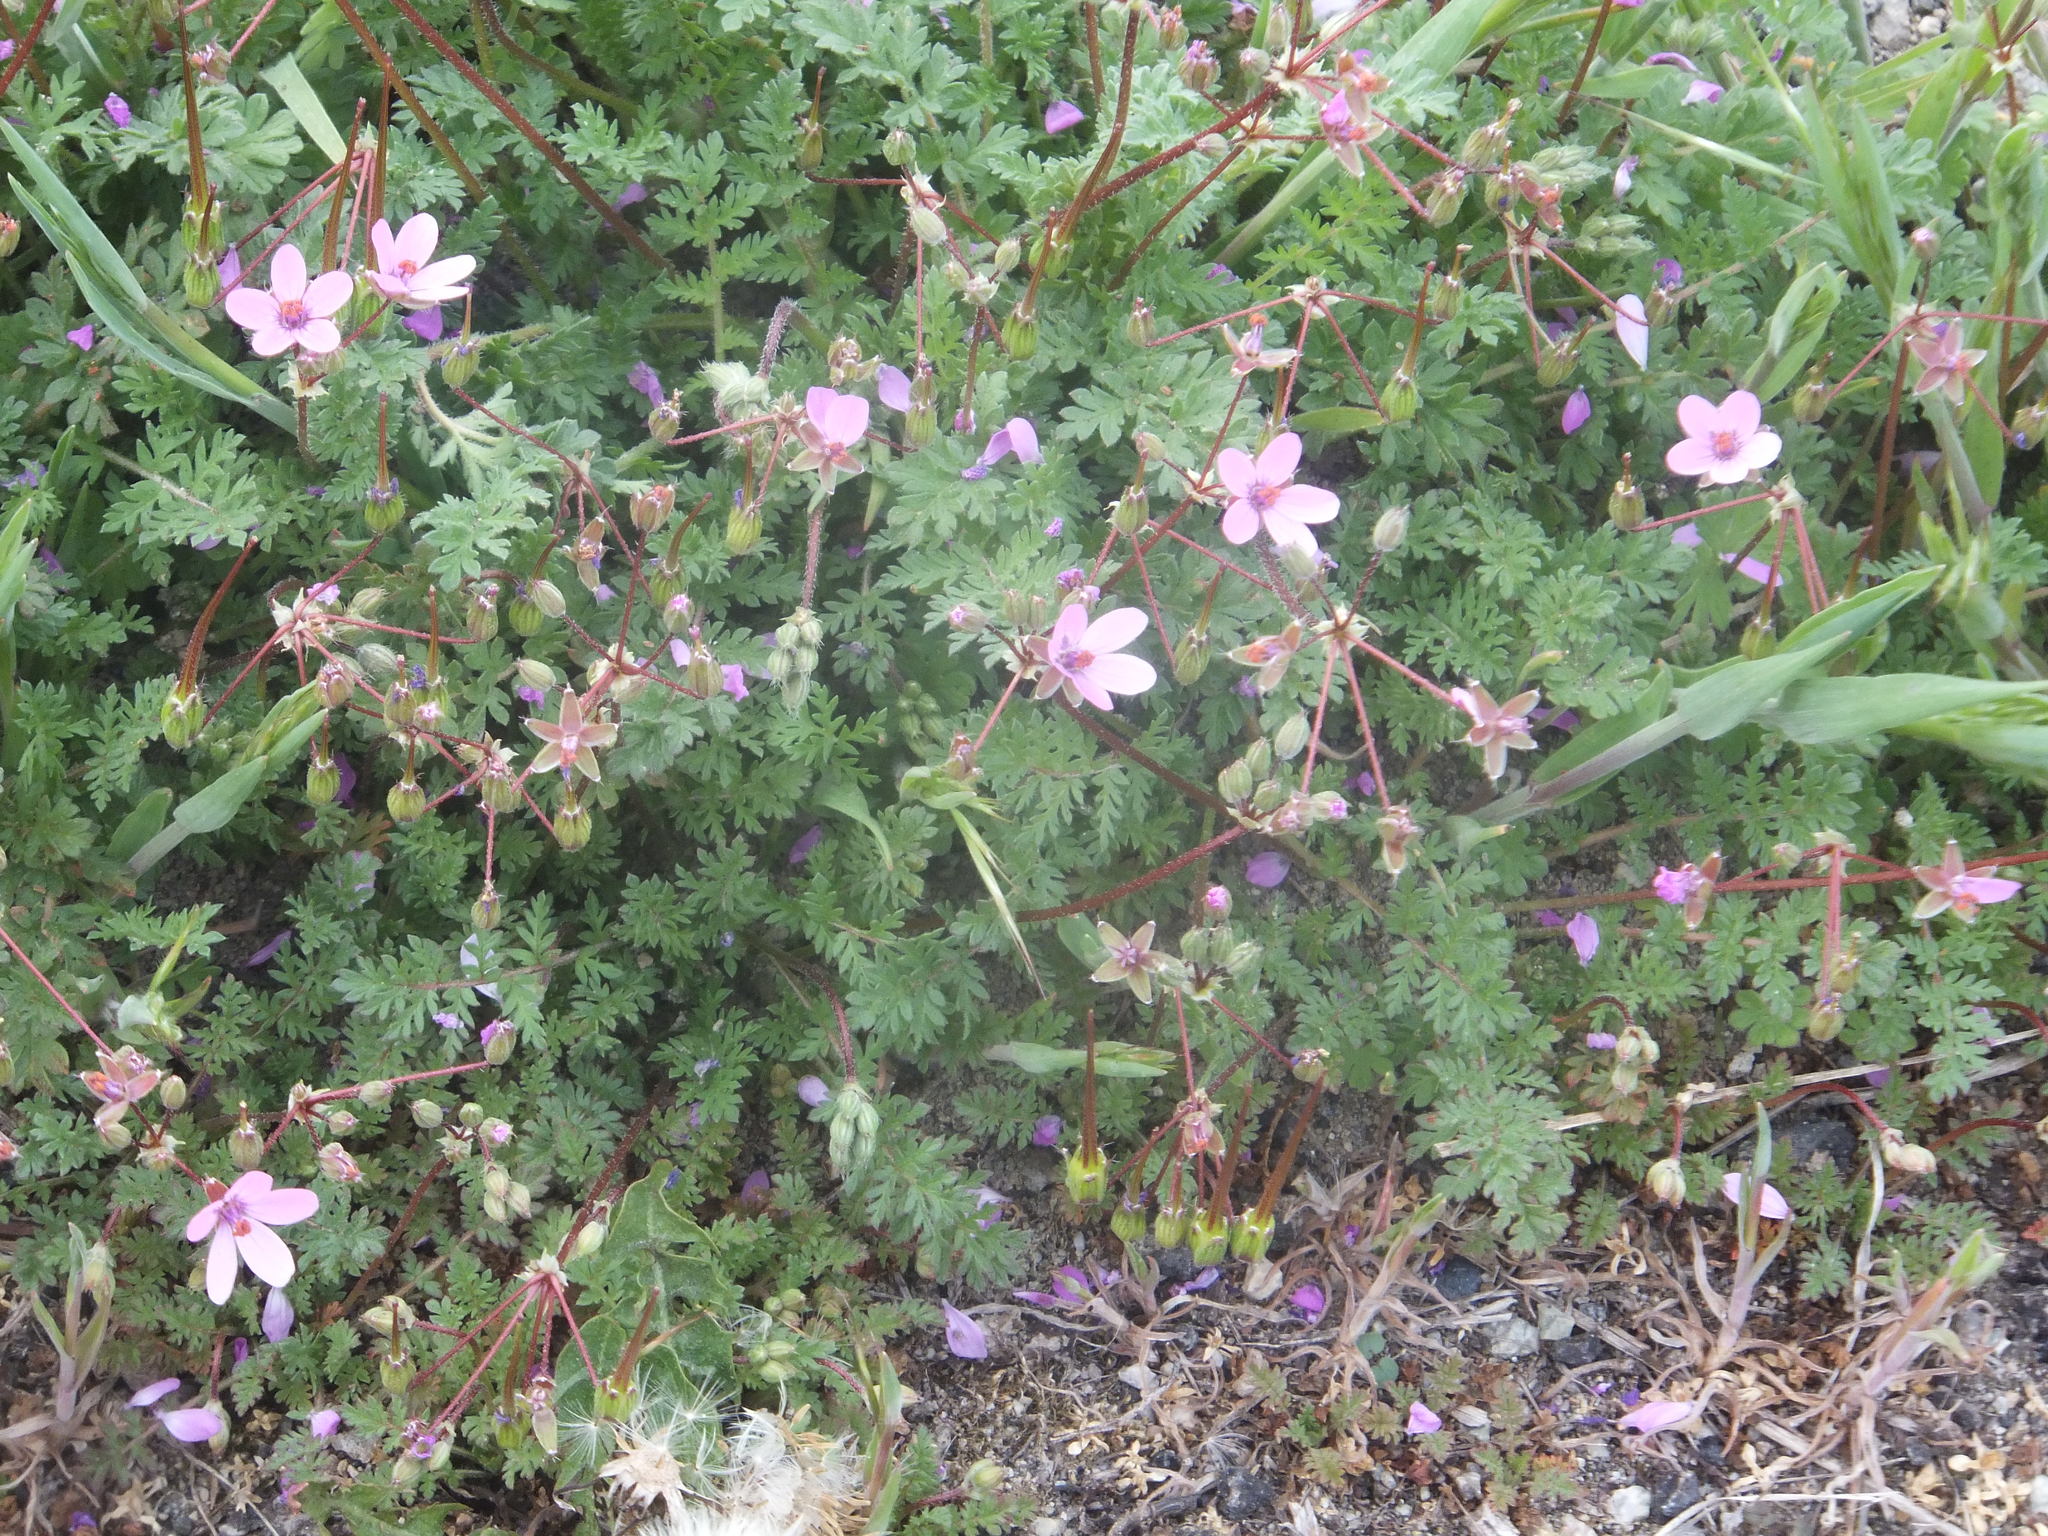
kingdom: Plantae
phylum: Tracheophyta
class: Magnoliopsida
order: Geraniales
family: Geraniaceae
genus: Erodium
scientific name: Erodium cicutarium
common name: Common stork's-bill
